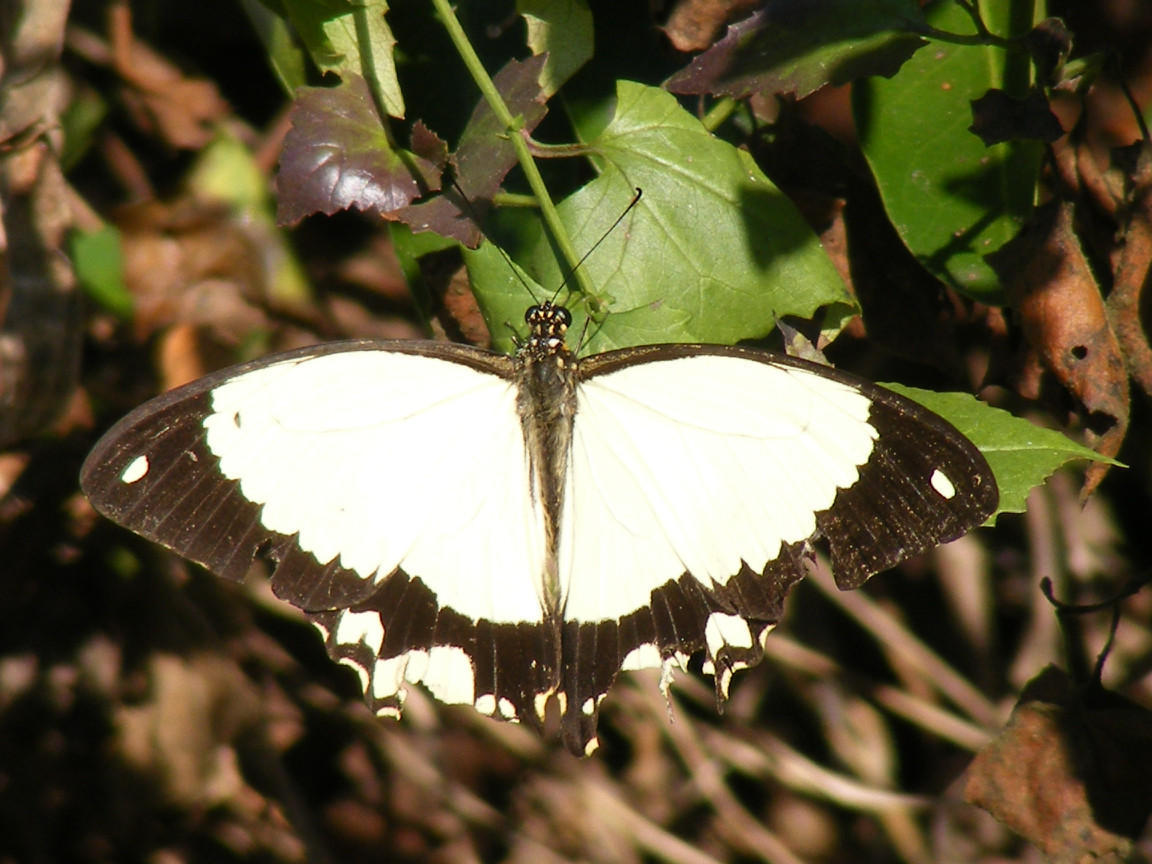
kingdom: Animalia
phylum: Arthropoda
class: Insecta
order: Lepidoptera
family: Papilionidae
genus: Papilio
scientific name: Papilio dardanus
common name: Flying handkerchief
